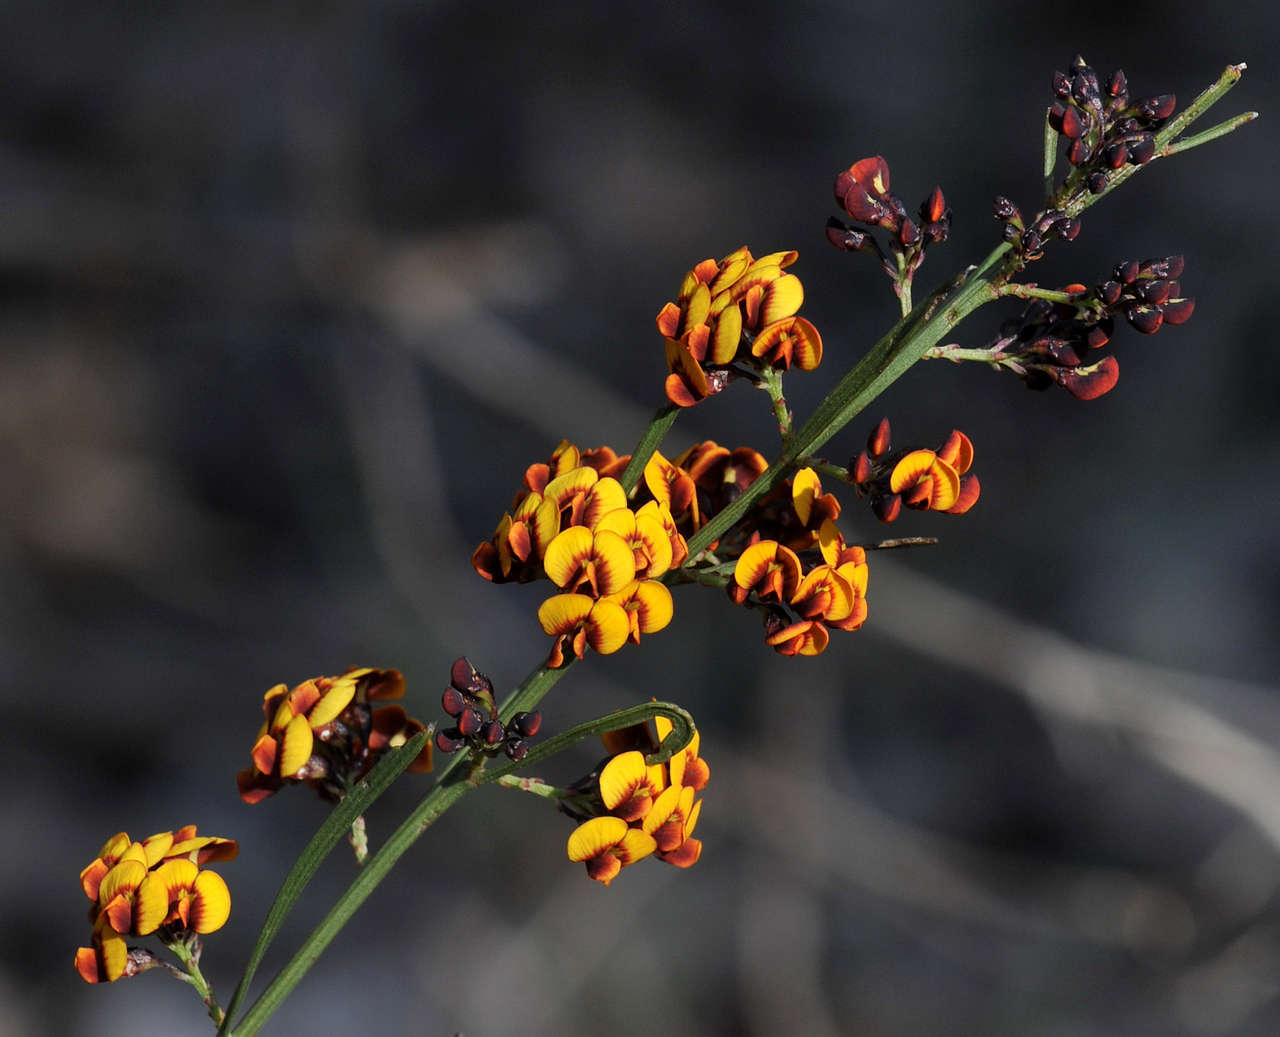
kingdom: Plantae
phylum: Tracheophyta
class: Magnoliopsida
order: Fabales
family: Fabaceae
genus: Daviesia
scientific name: Daviesia leptophylla
